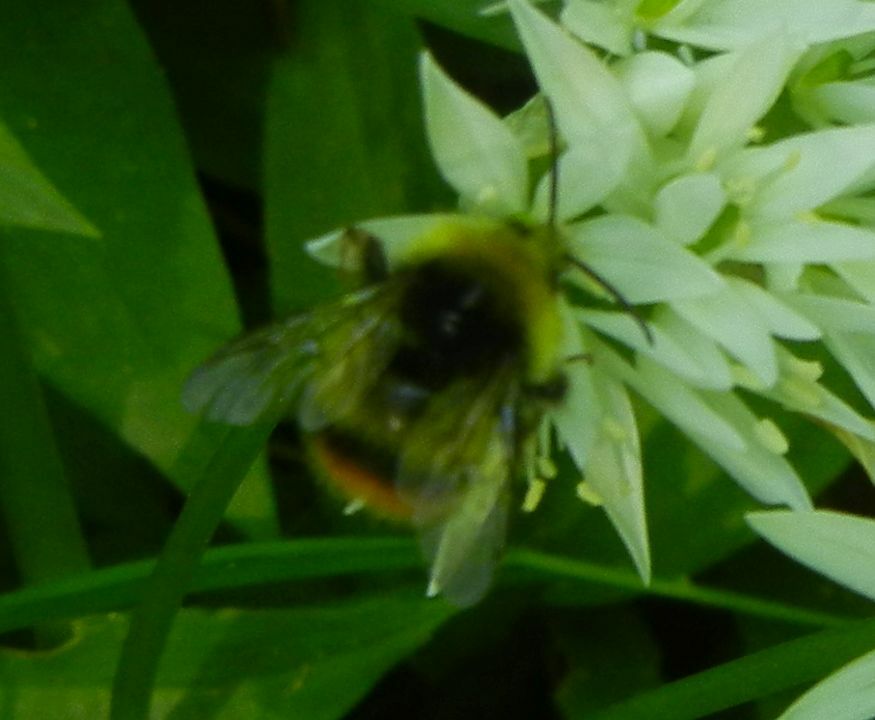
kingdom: Animalia
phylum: Arthropoda
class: Insecta
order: Hymenoptera
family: Apidae
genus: Bombus
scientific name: Bombus pratorum
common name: Early humble-bee
